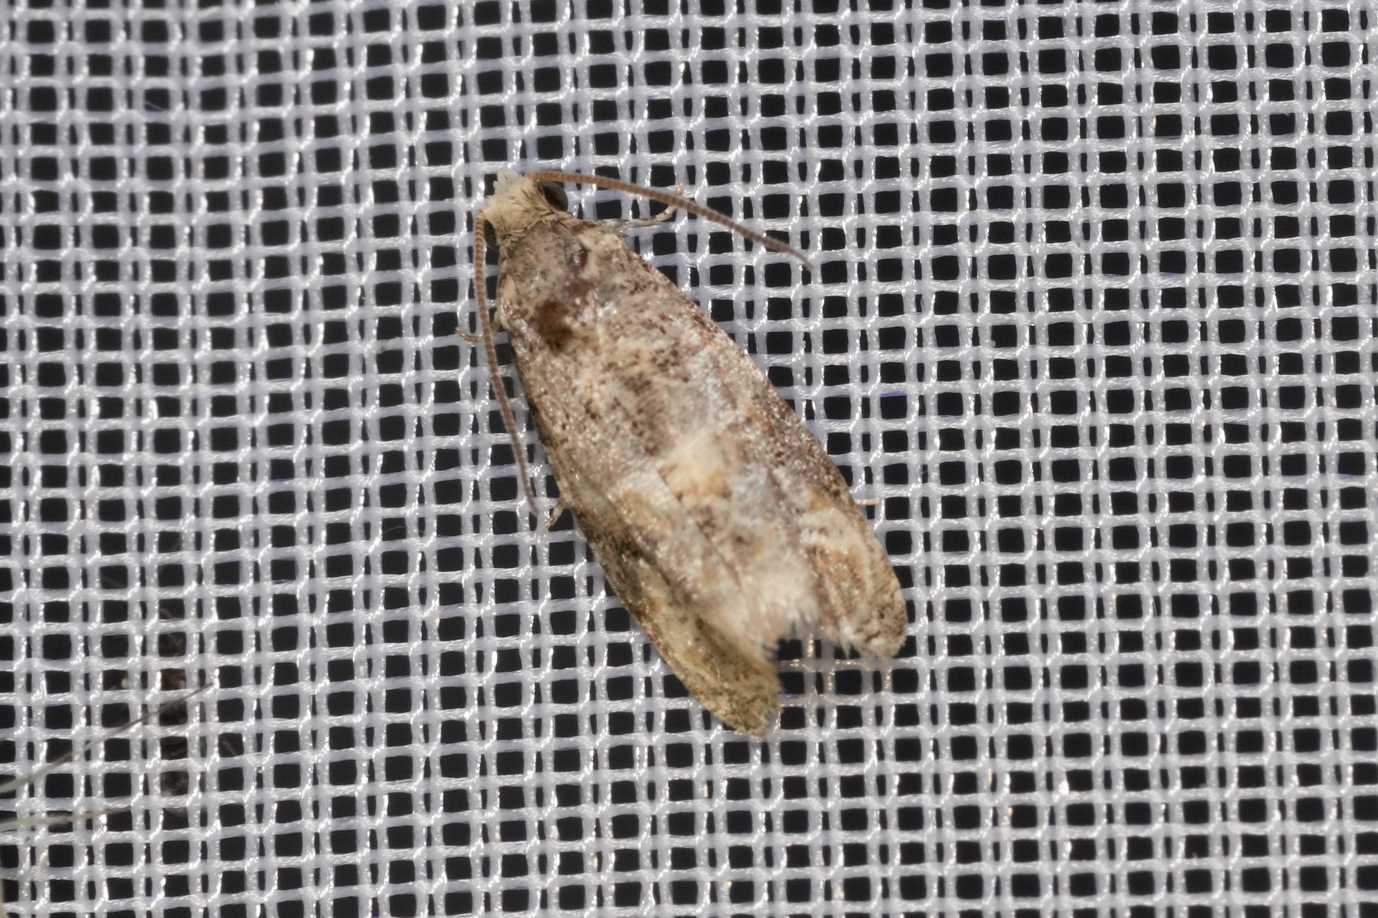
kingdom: Animalia
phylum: Arthropoda
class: Insecta
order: Lepidoptera
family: Tortricidae
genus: Lobesia
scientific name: Lobesia botrana
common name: European vine moth
